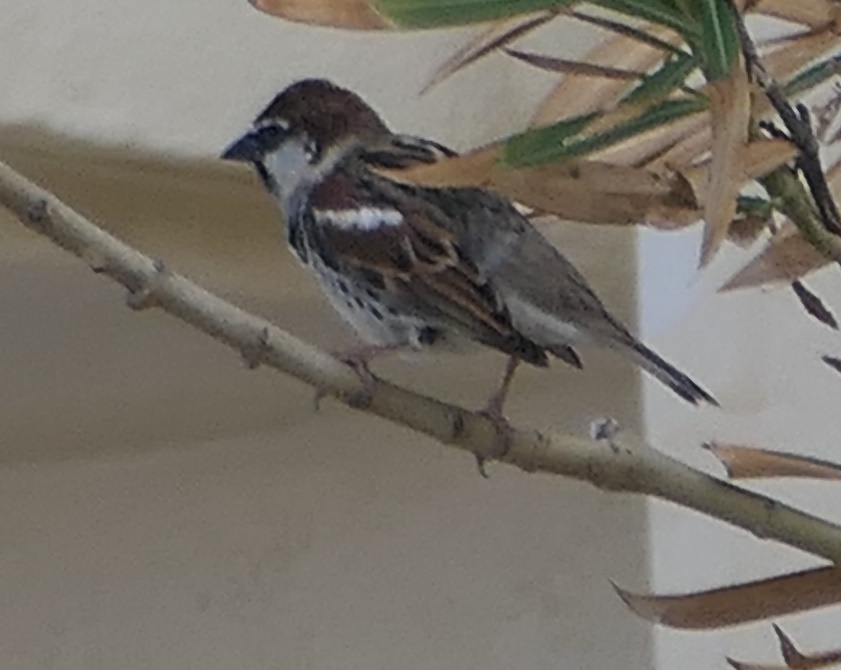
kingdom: Animalia
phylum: Chordata
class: Aves
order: Passeriformes
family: Passeridae
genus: Passer
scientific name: Passer
